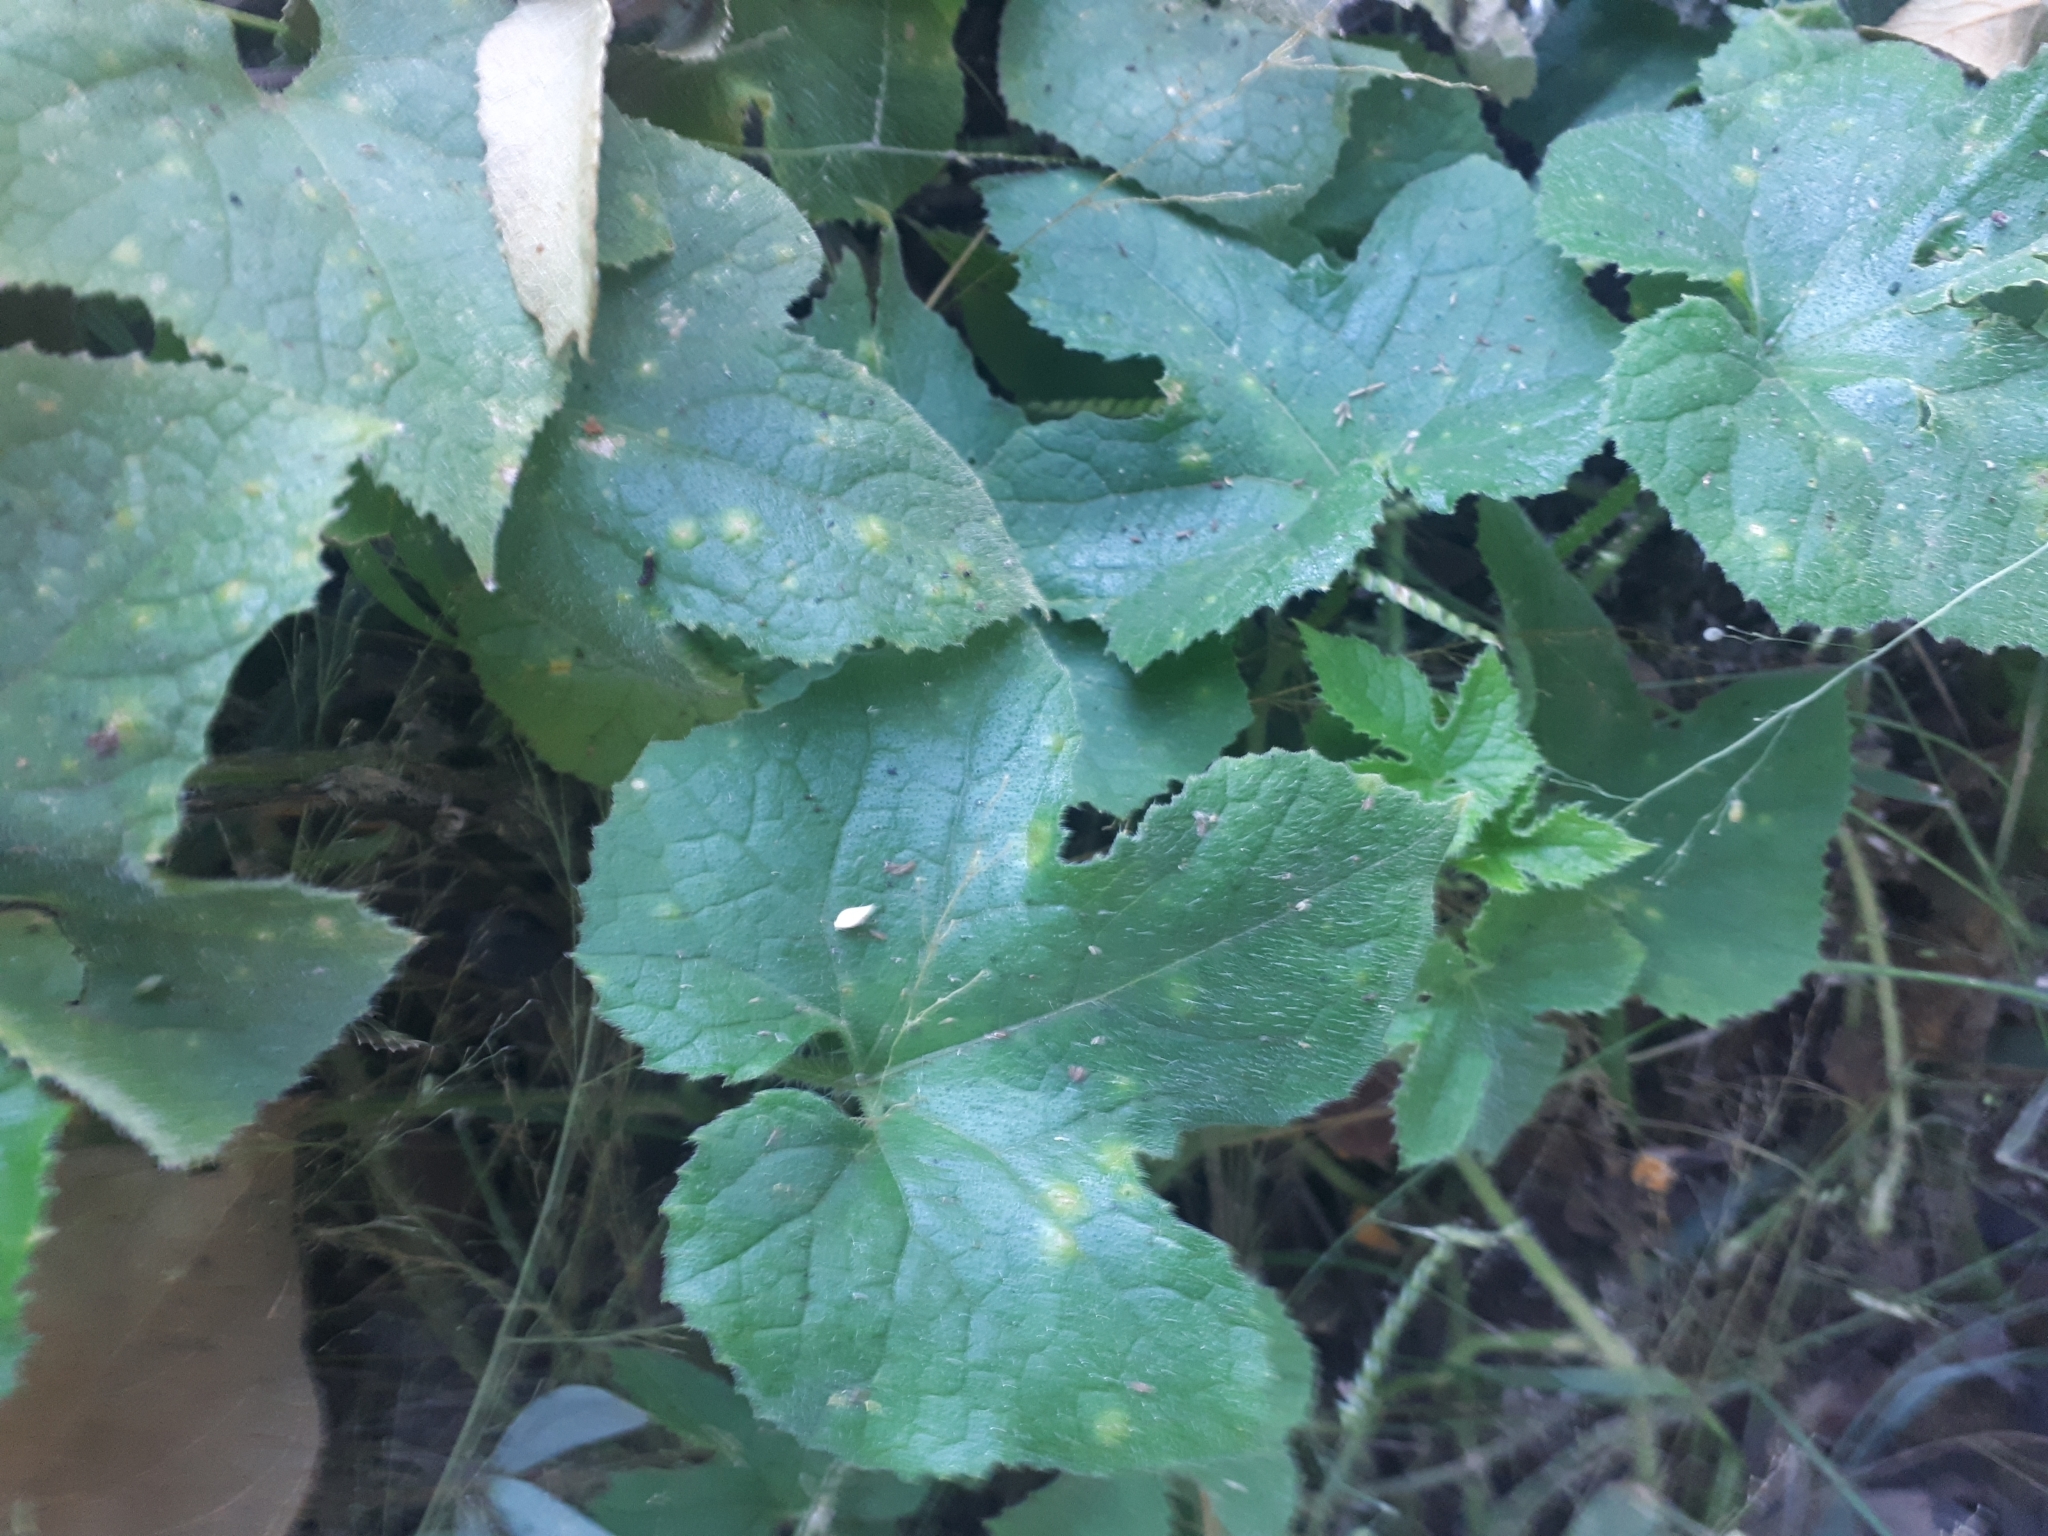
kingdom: Plantae
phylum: Tracheophyta
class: Magnoliopsida
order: Cucurbitales
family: Cucurbitaceae
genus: Cucumis
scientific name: Cucumis metuliferus
